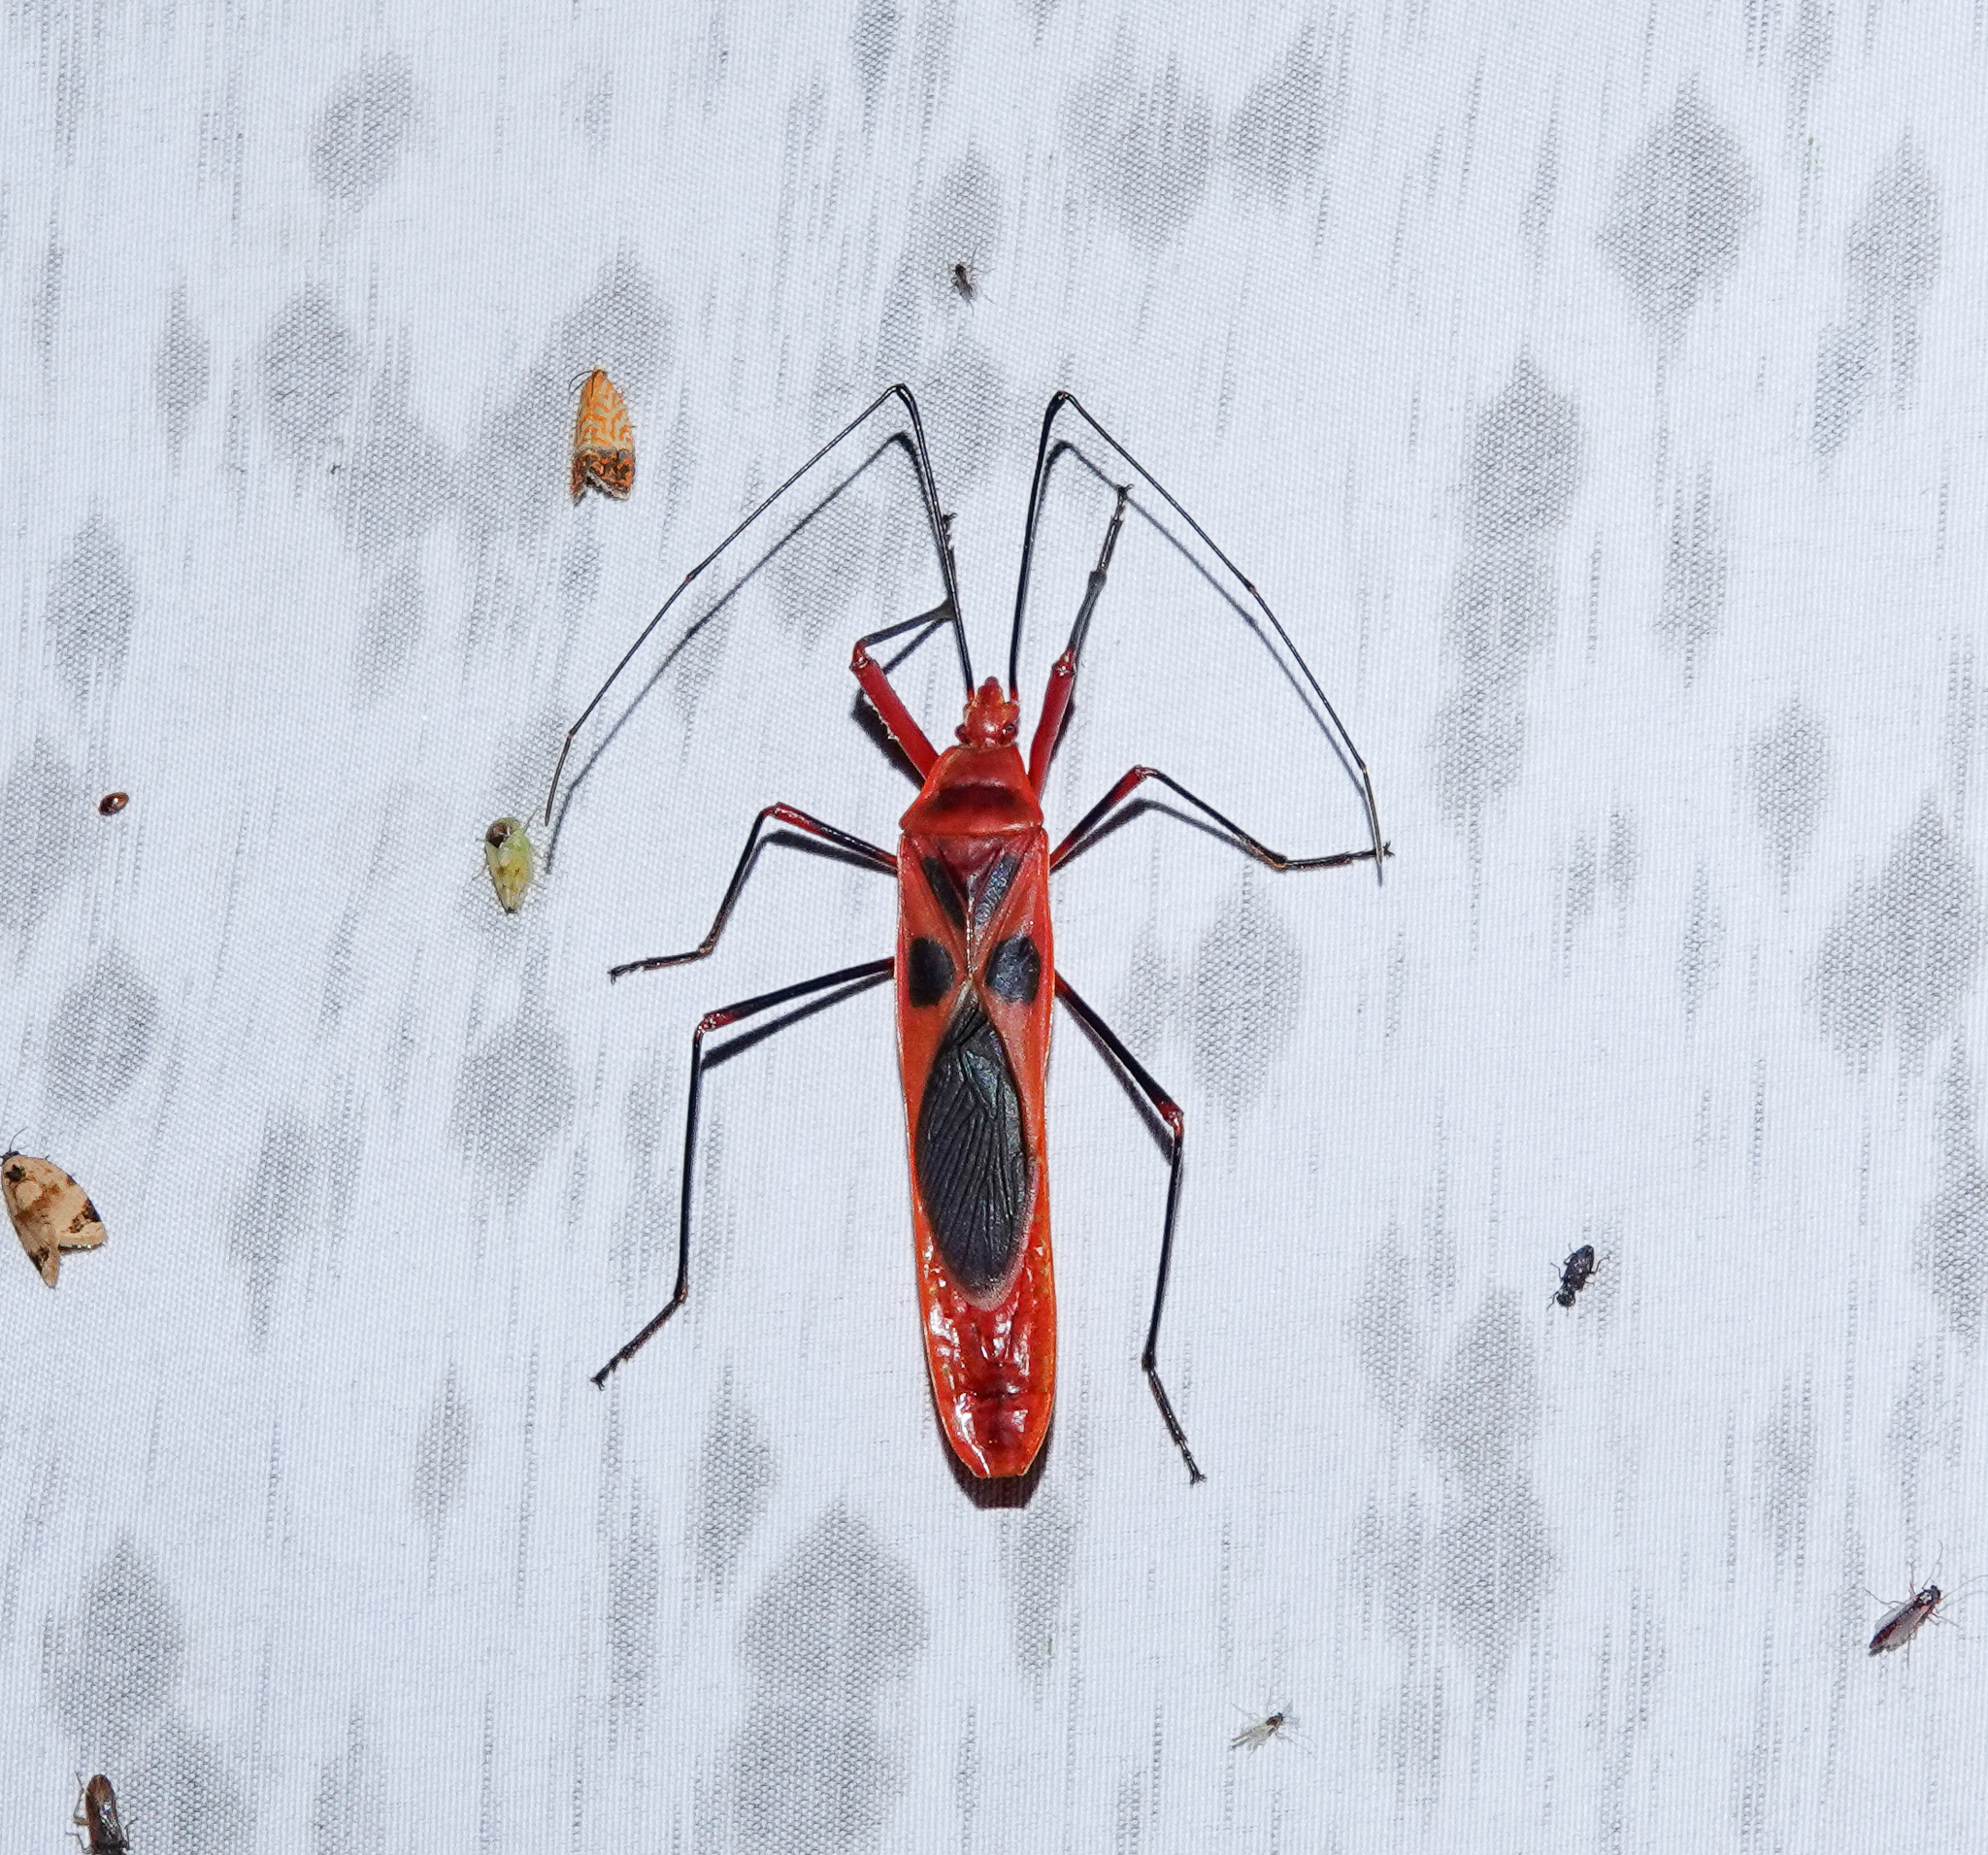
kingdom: Animalia
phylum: Arthropoda
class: Insecta
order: Hemiptera
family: Largidae
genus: Macrocheraia
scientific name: Macrocheraia grandis
